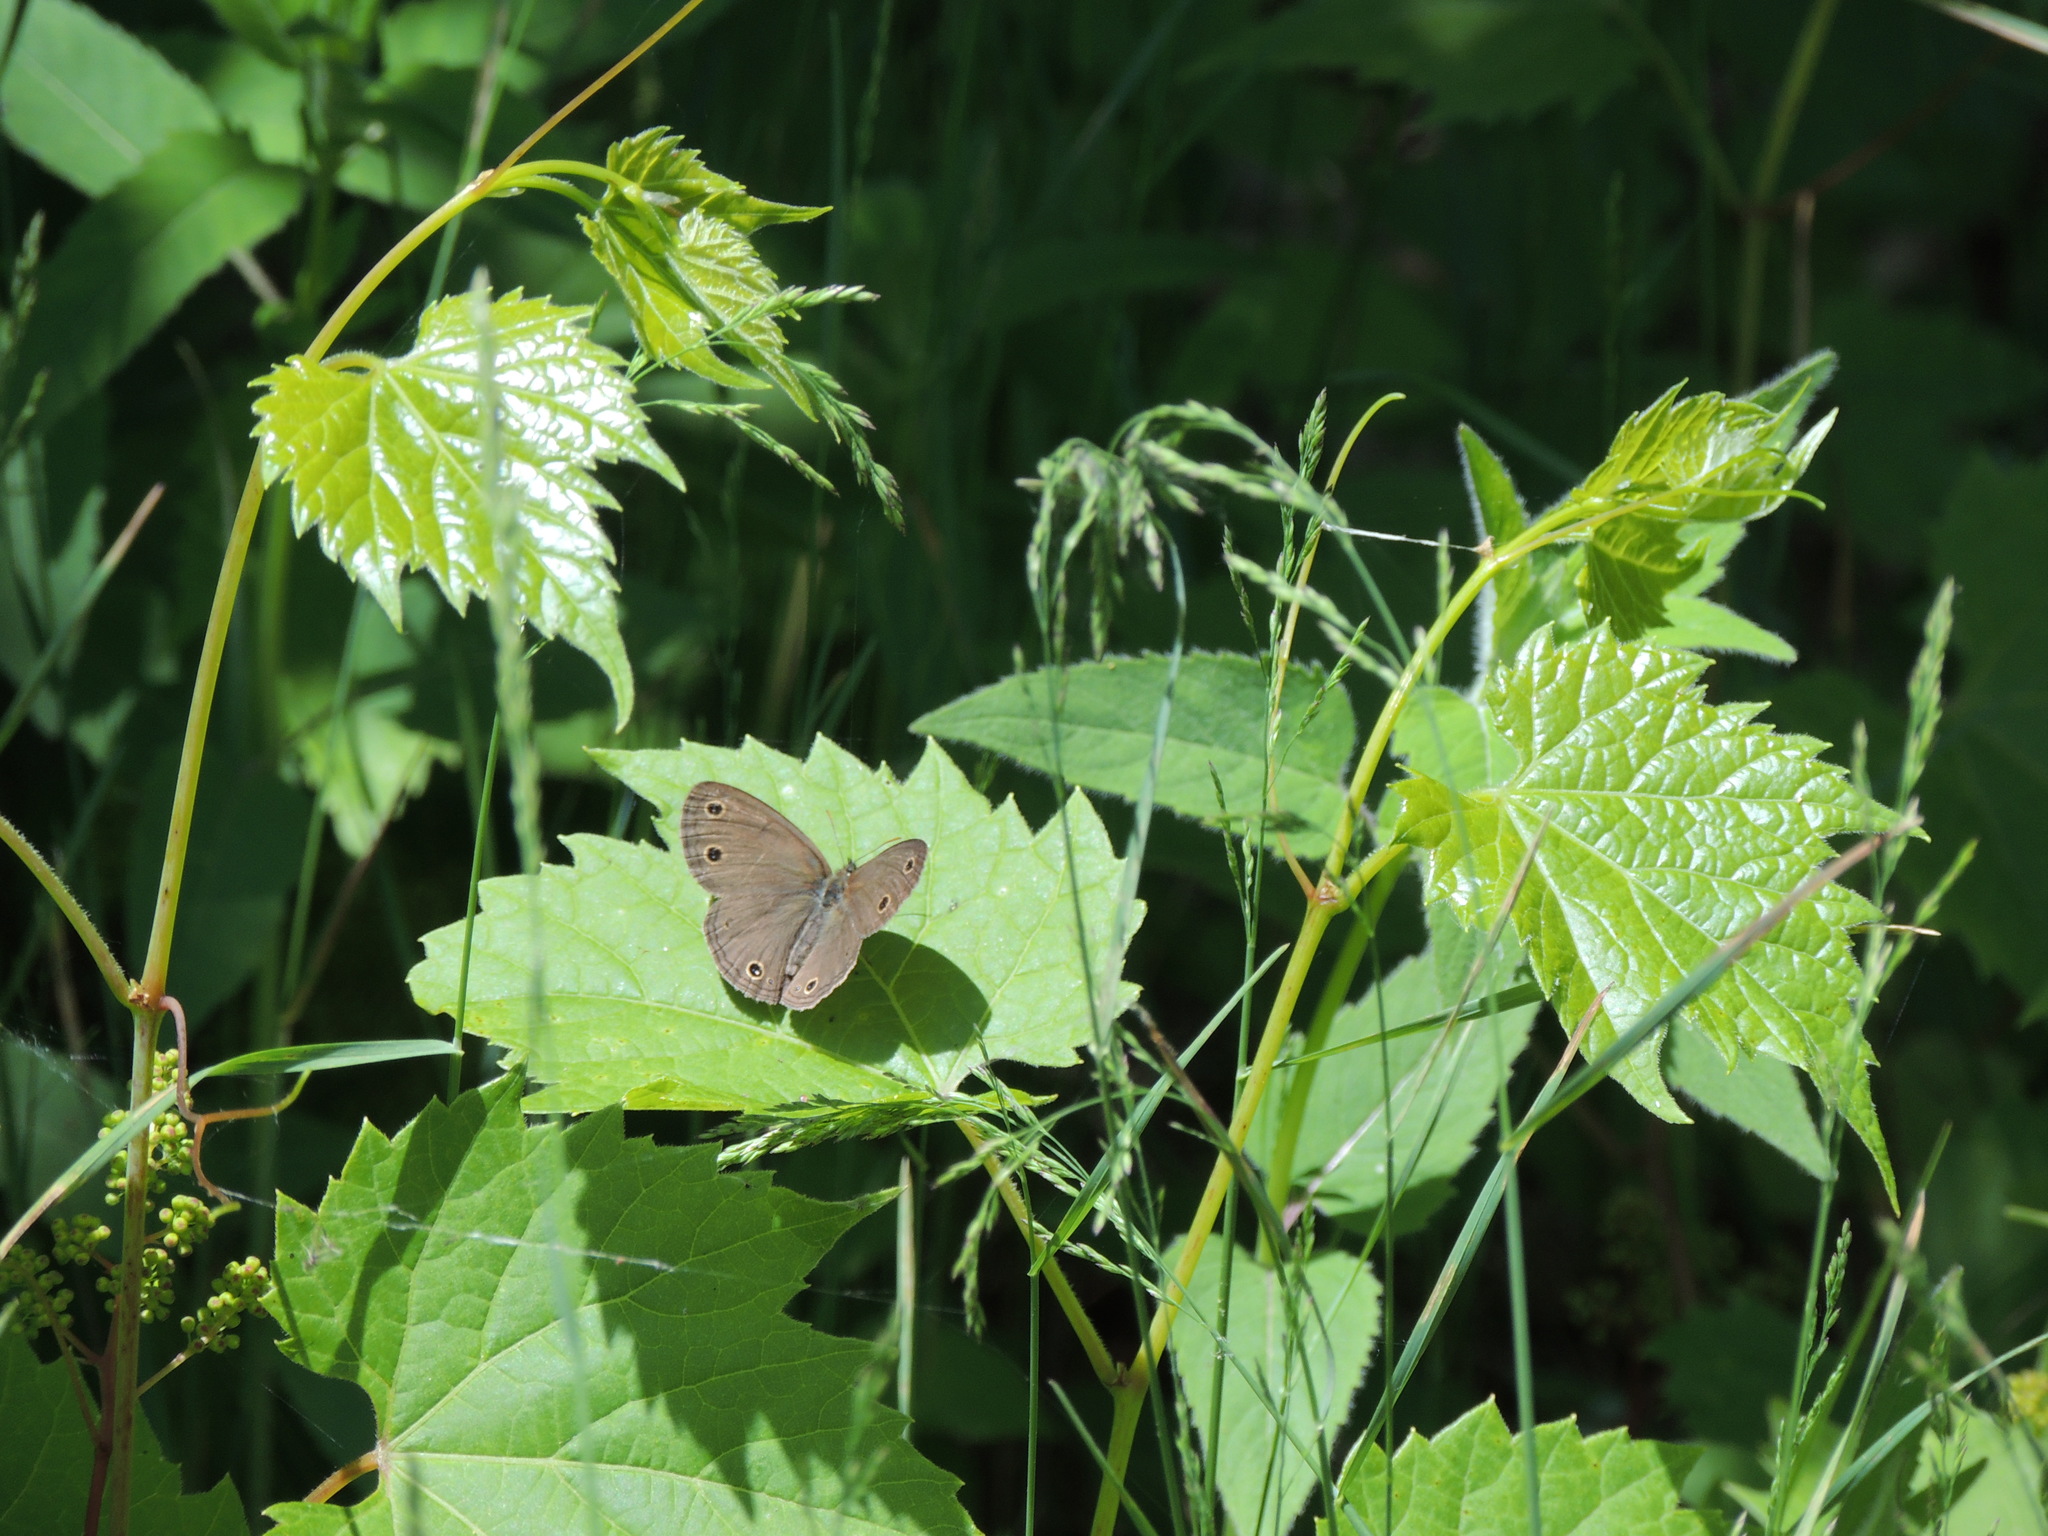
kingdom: Animalia
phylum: Arthropoda
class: Insecta
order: Lepidoptera
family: Nymphalidae
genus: Euptychia
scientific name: Euptychia cymela
